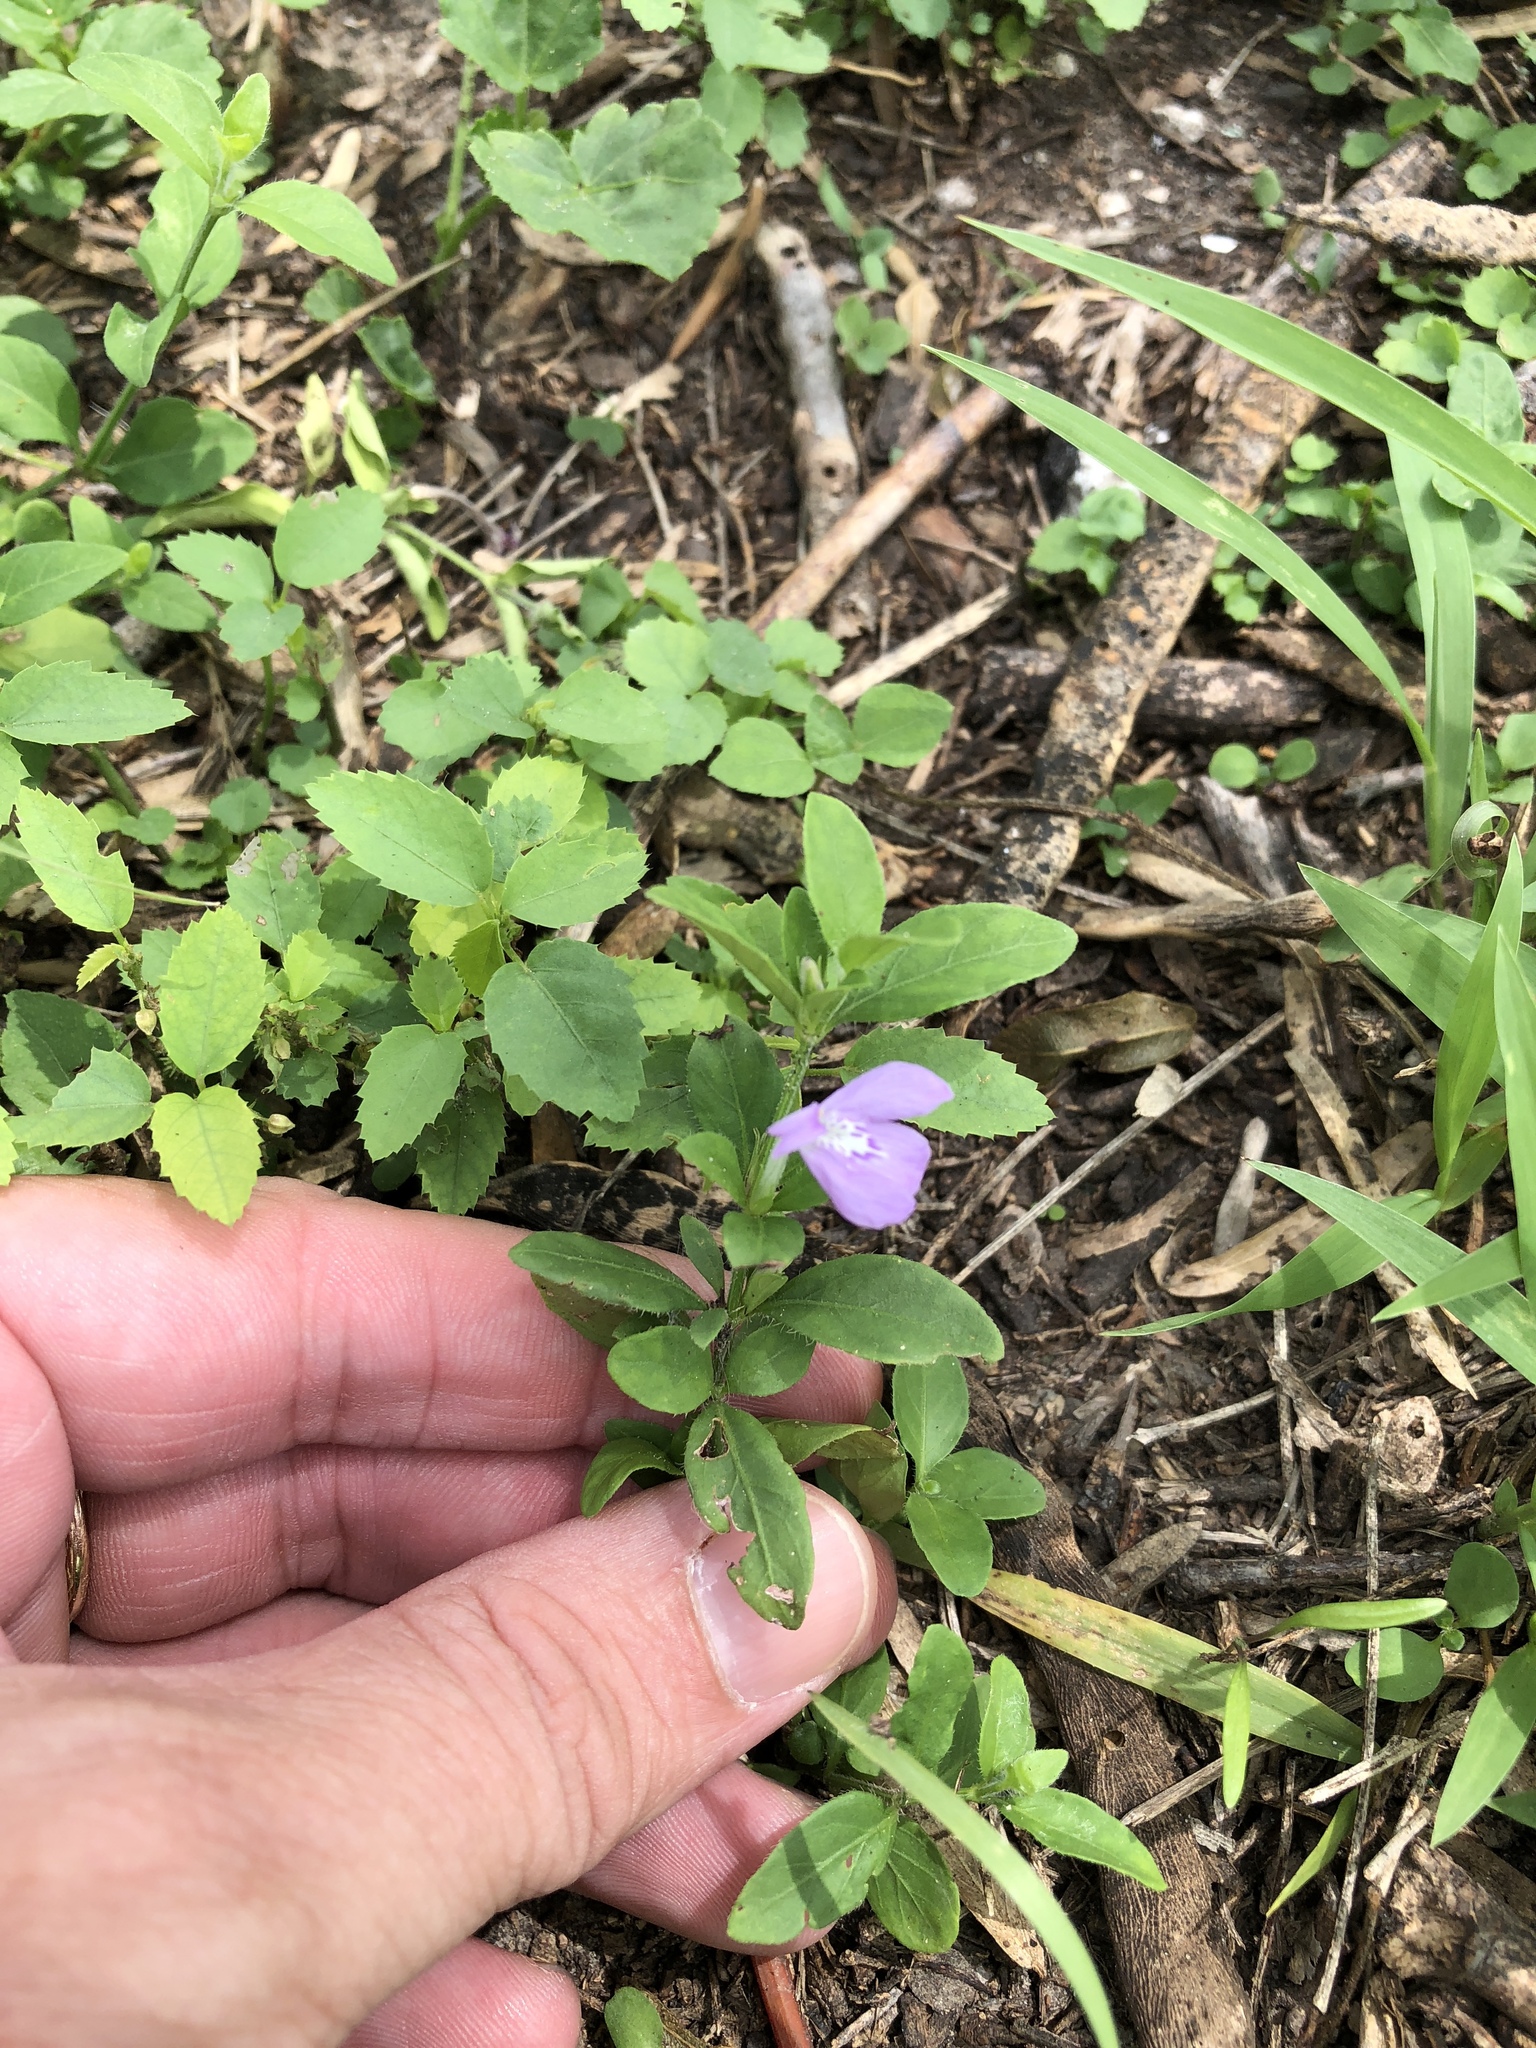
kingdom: Plantae
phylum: Tracheophyta
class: Magnoliopsida
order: Lamiales
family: Acanthaceae
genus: Justicia
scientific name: Justicia pilosella
